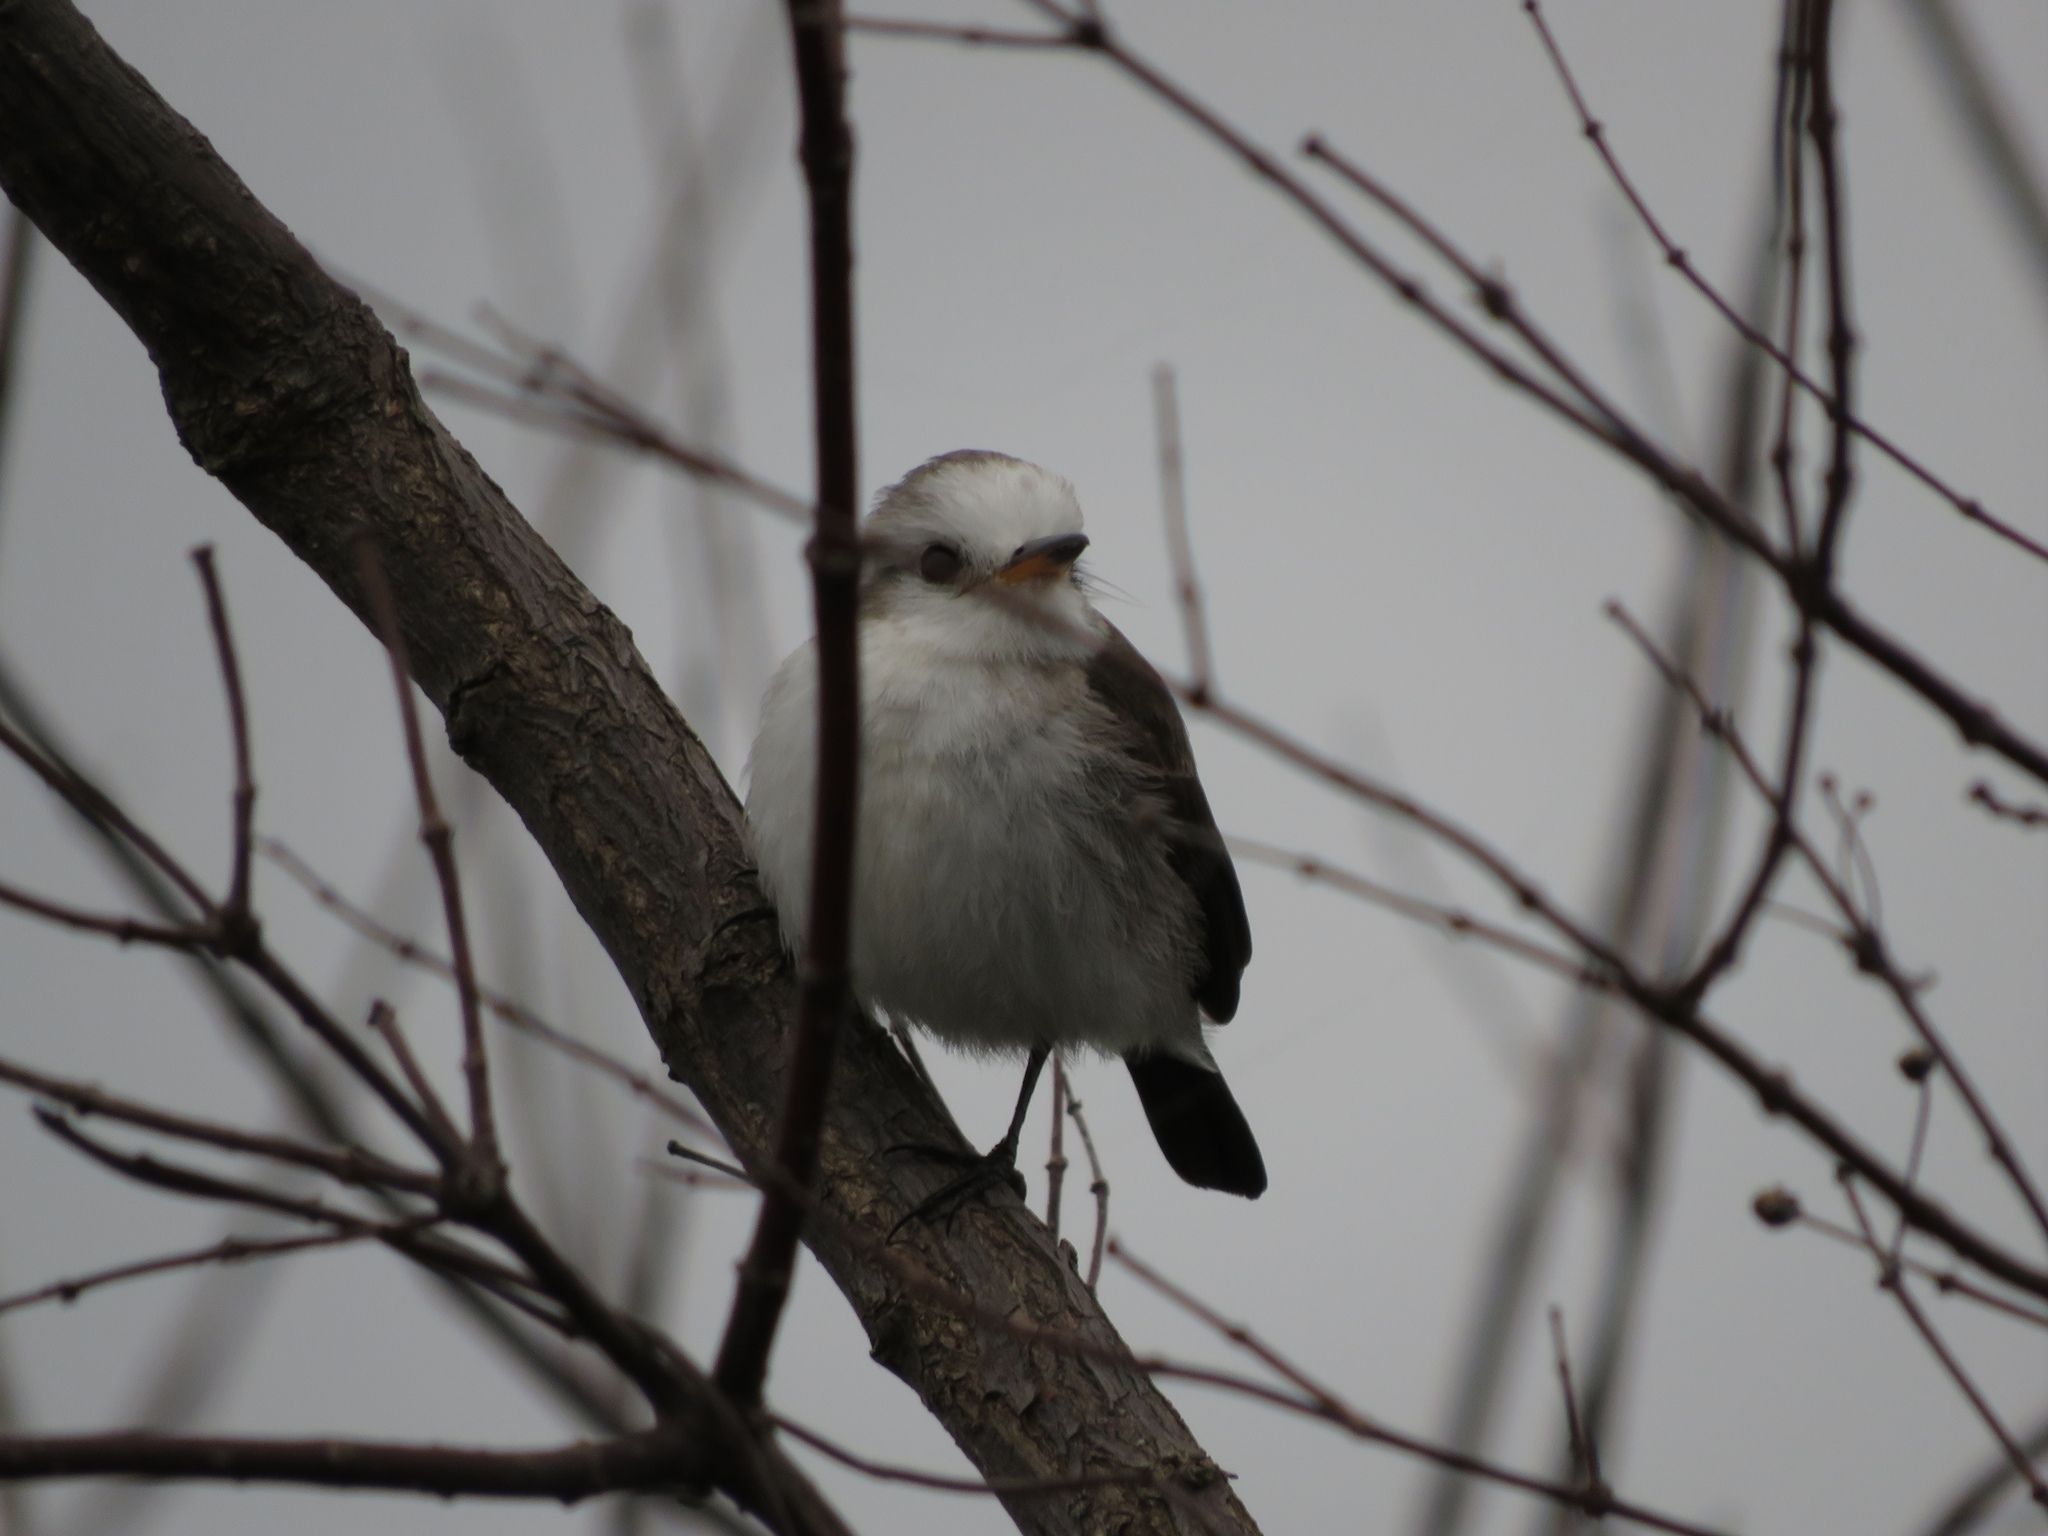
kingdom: Animalia
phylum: Chordata
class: Aves
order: Passeriformes
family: Tyrannidae
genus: Arundinicola
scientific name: Arundinicola leucocephala
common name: White-headed marsh tyrant
